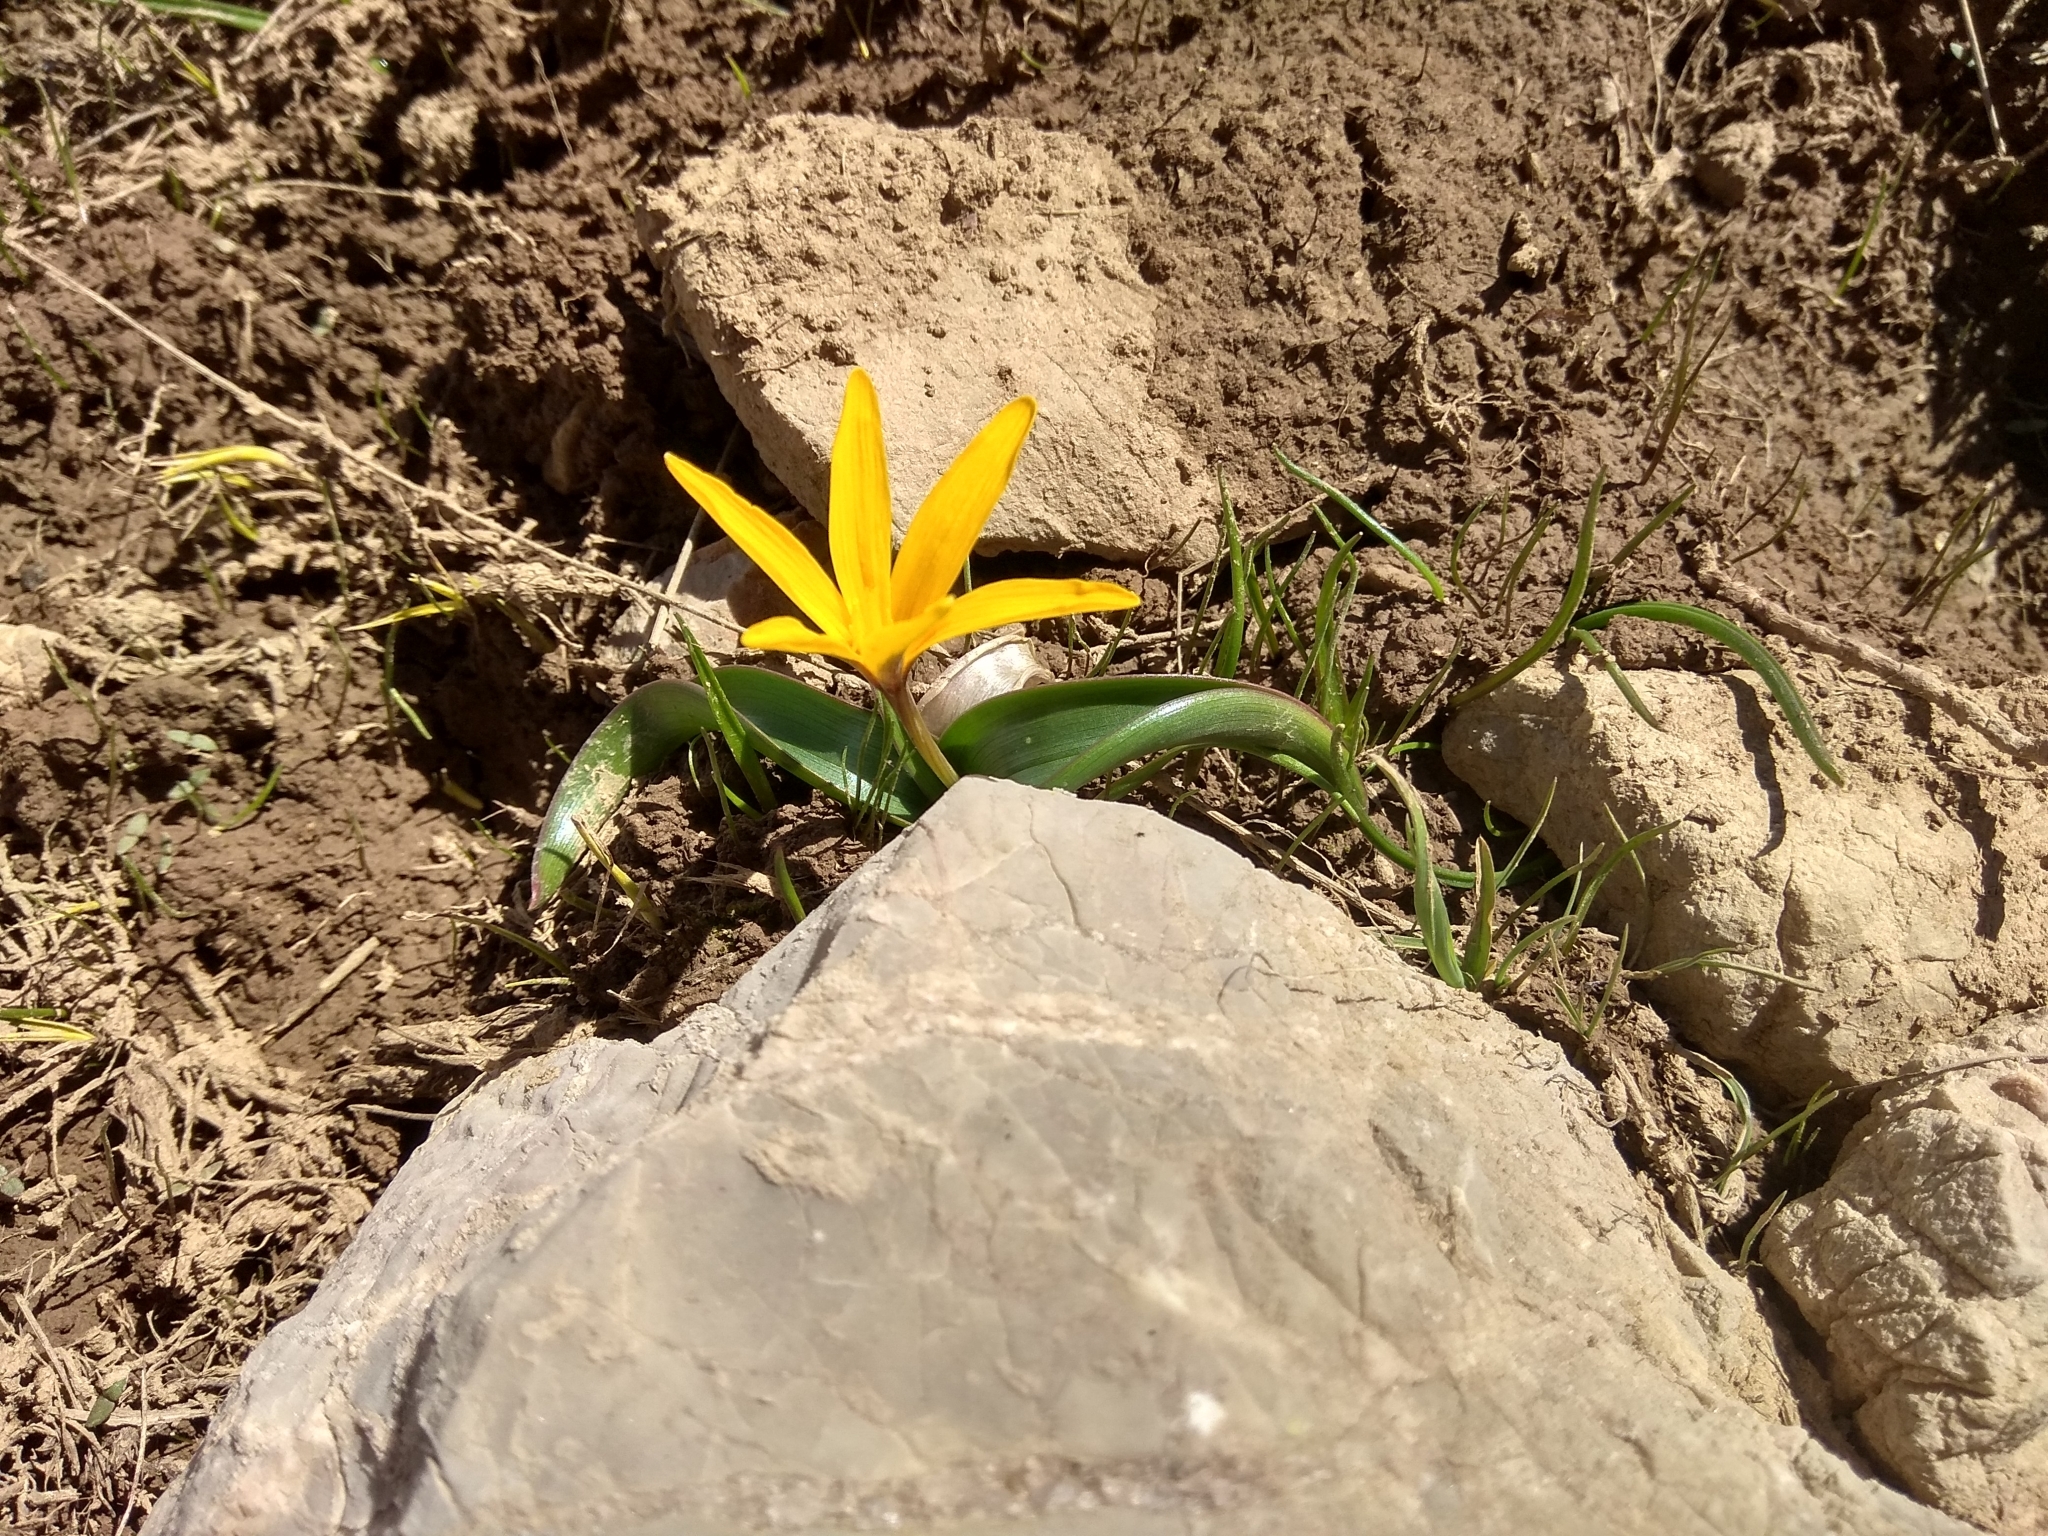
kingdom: Plantae
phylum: Tracheophyta
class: Liliopsida
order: Liliales
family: Colchicaceae
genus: Colchicum
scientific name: Colchicum luteum
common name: Indian colchicum
